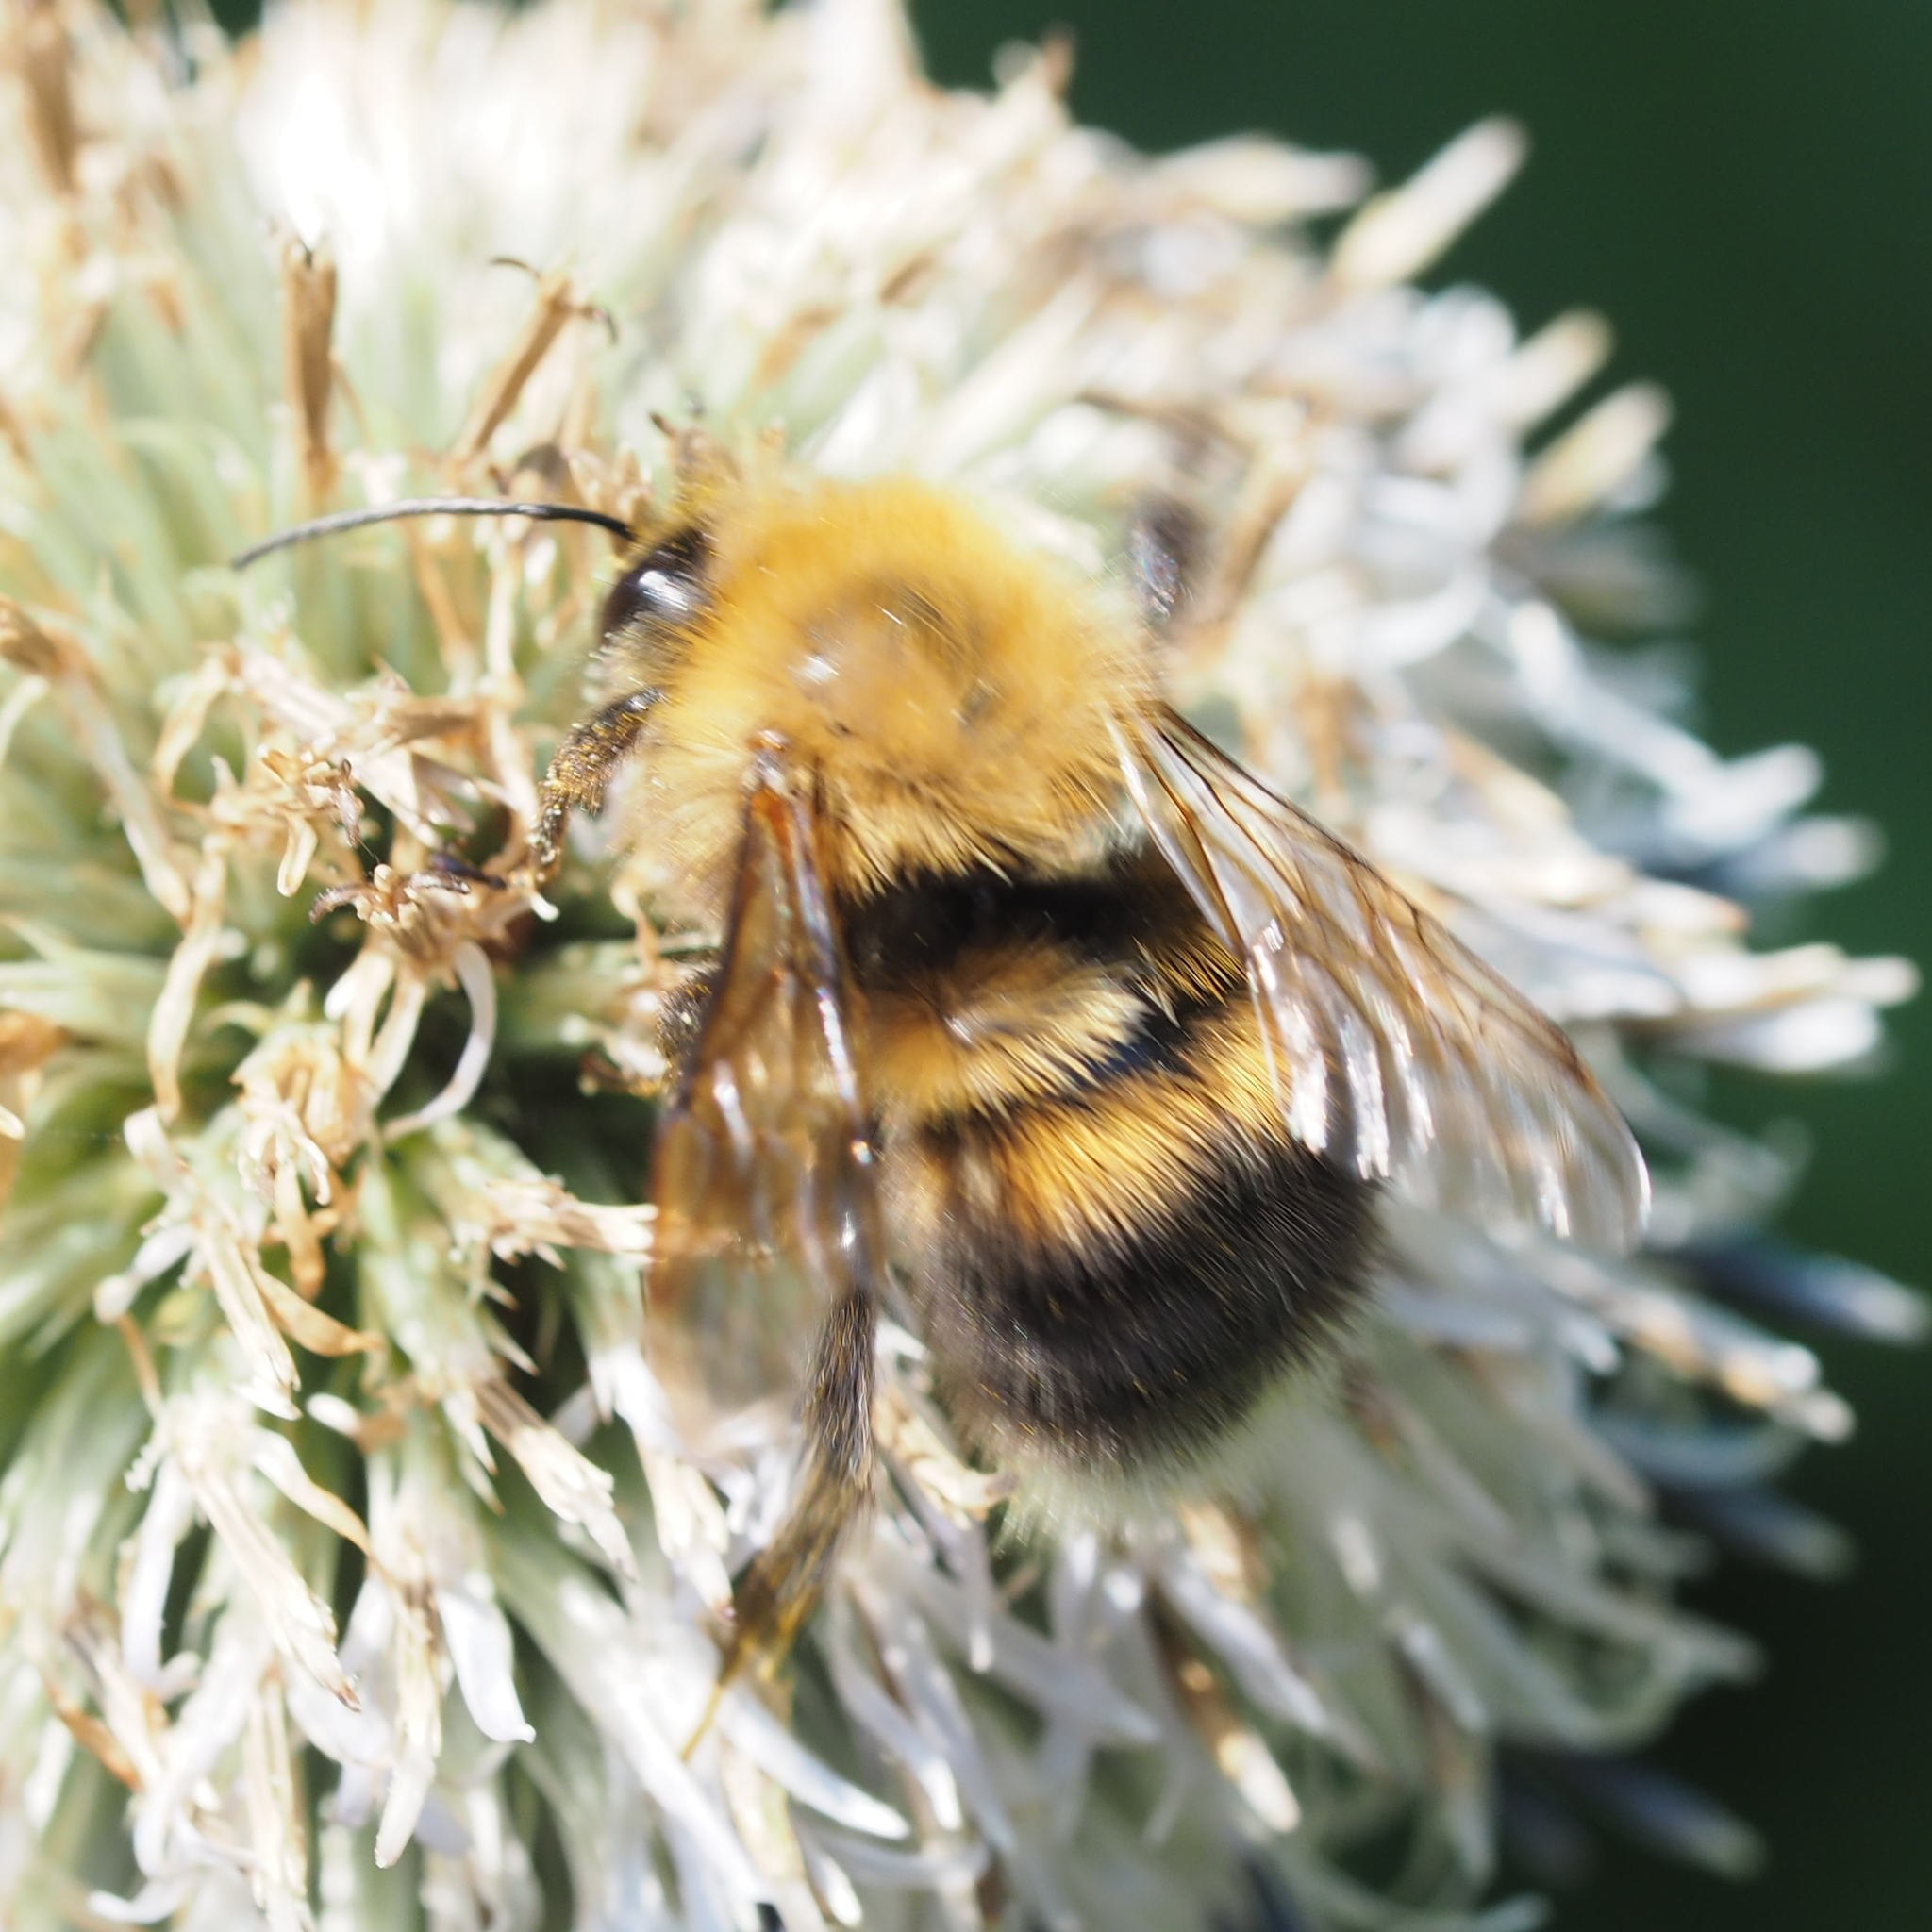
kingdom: Animalia
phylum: Arthropoda
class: Insecta
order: Hymenoptera
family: Apidae
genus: Bombus
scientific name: Bombus hypnorum
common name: New garden bumblebee
